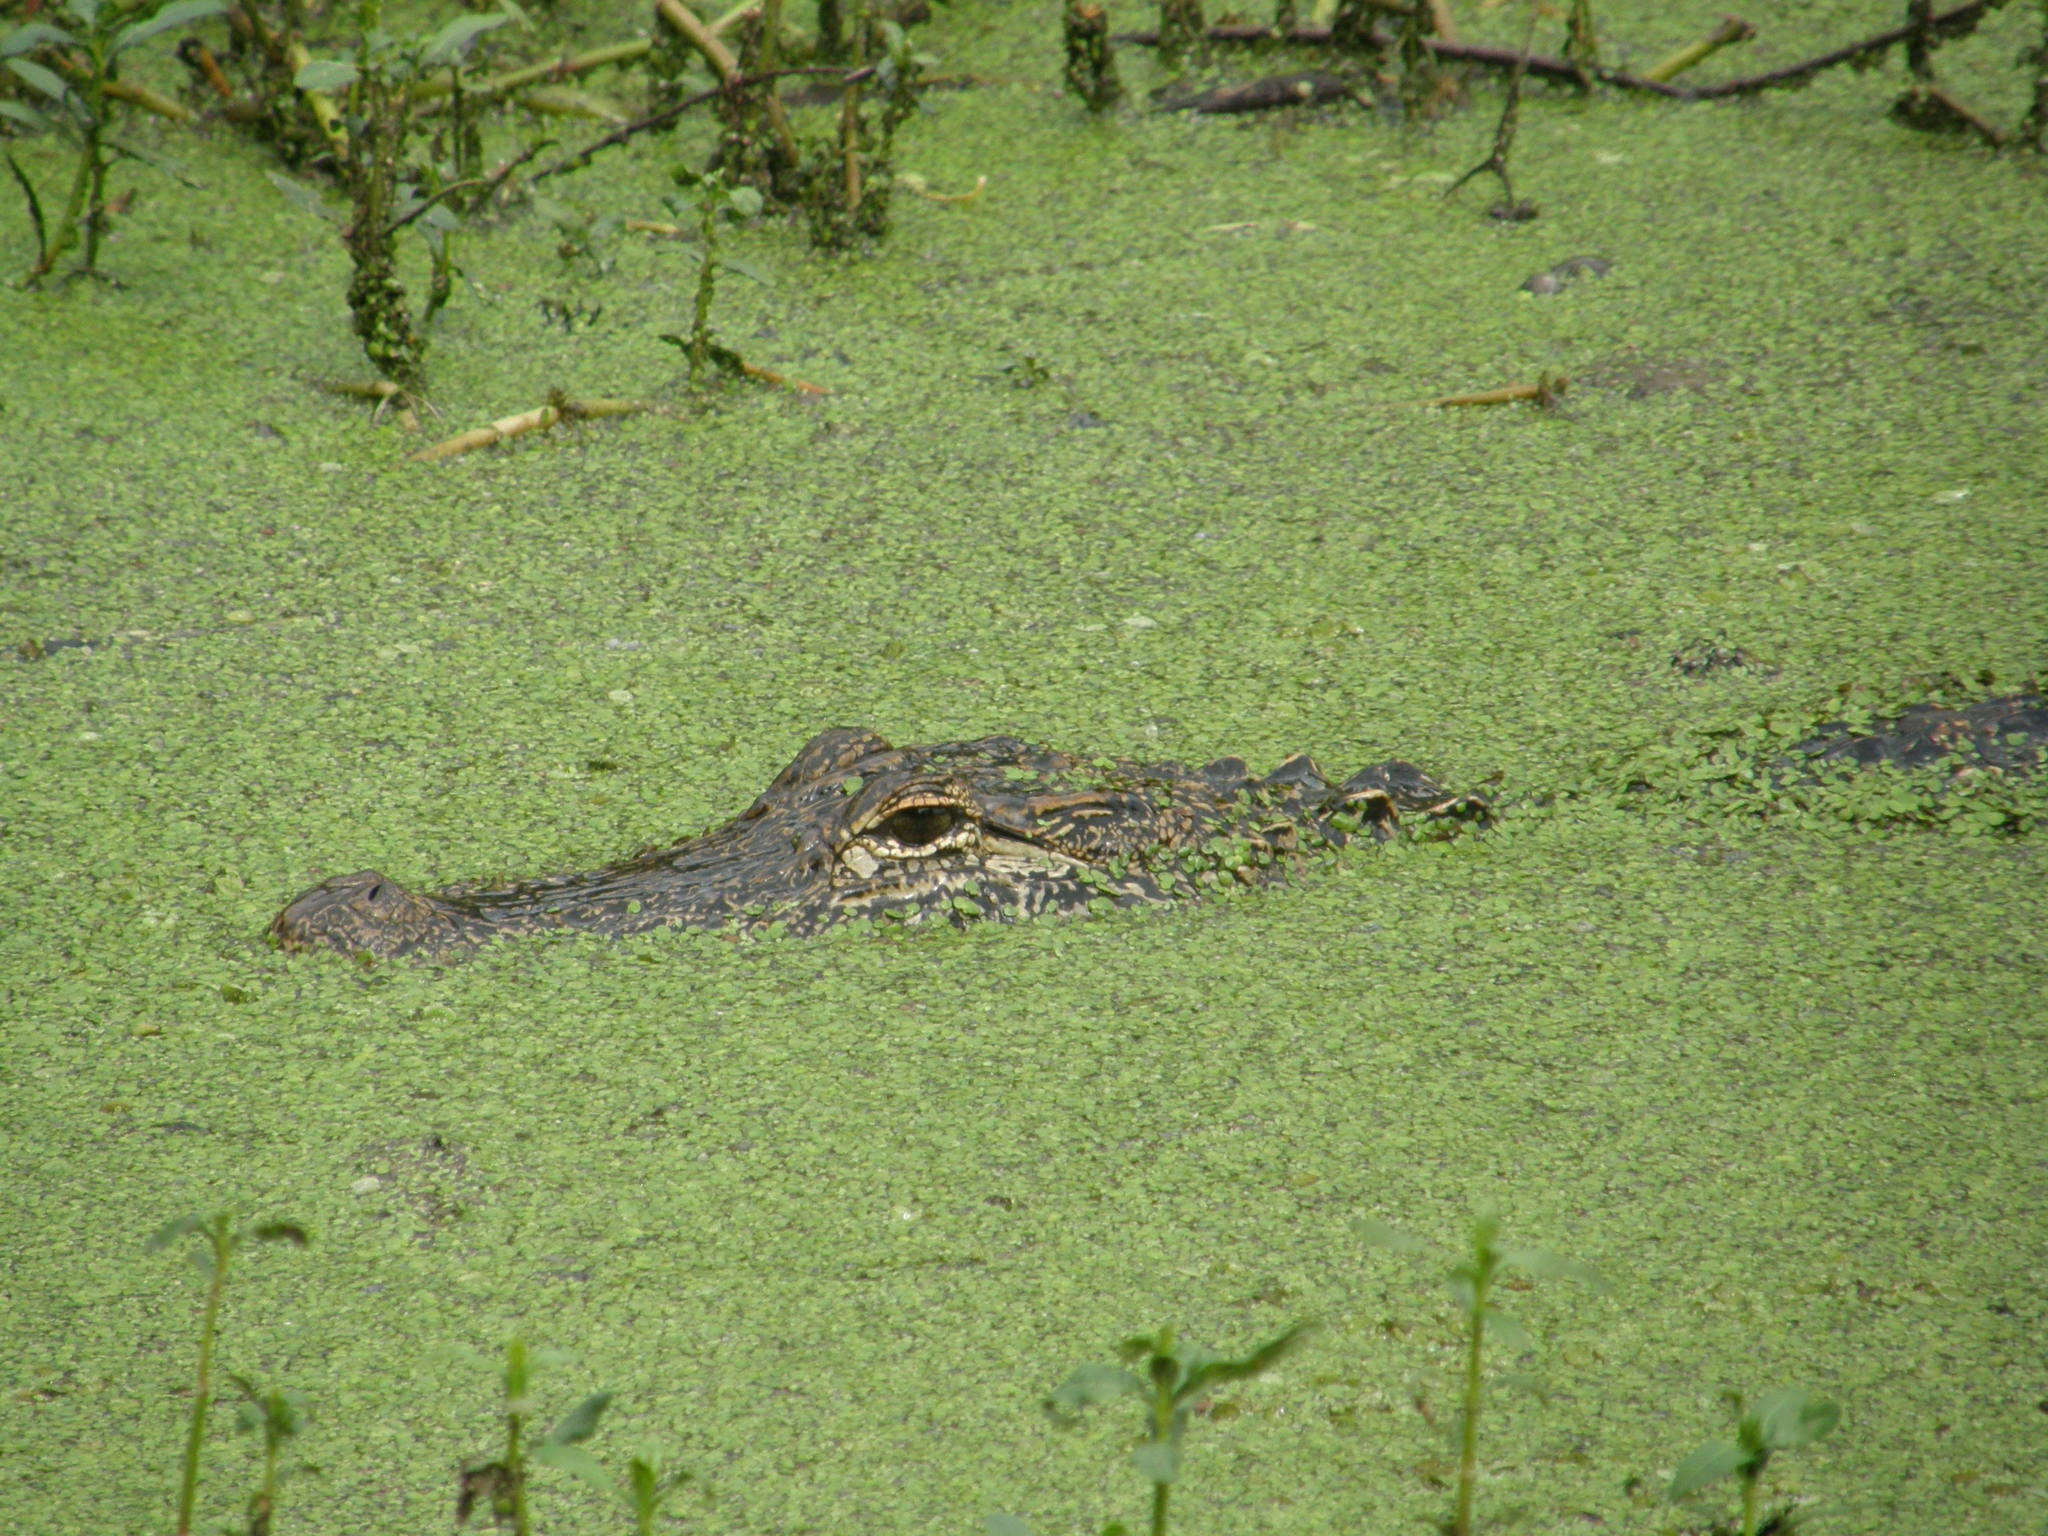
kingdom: Animalia
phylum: Chordata
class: Crocodylia
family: Alligatoridae
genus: Alligator
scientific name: Alligator mississippiensis
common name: American alligator
